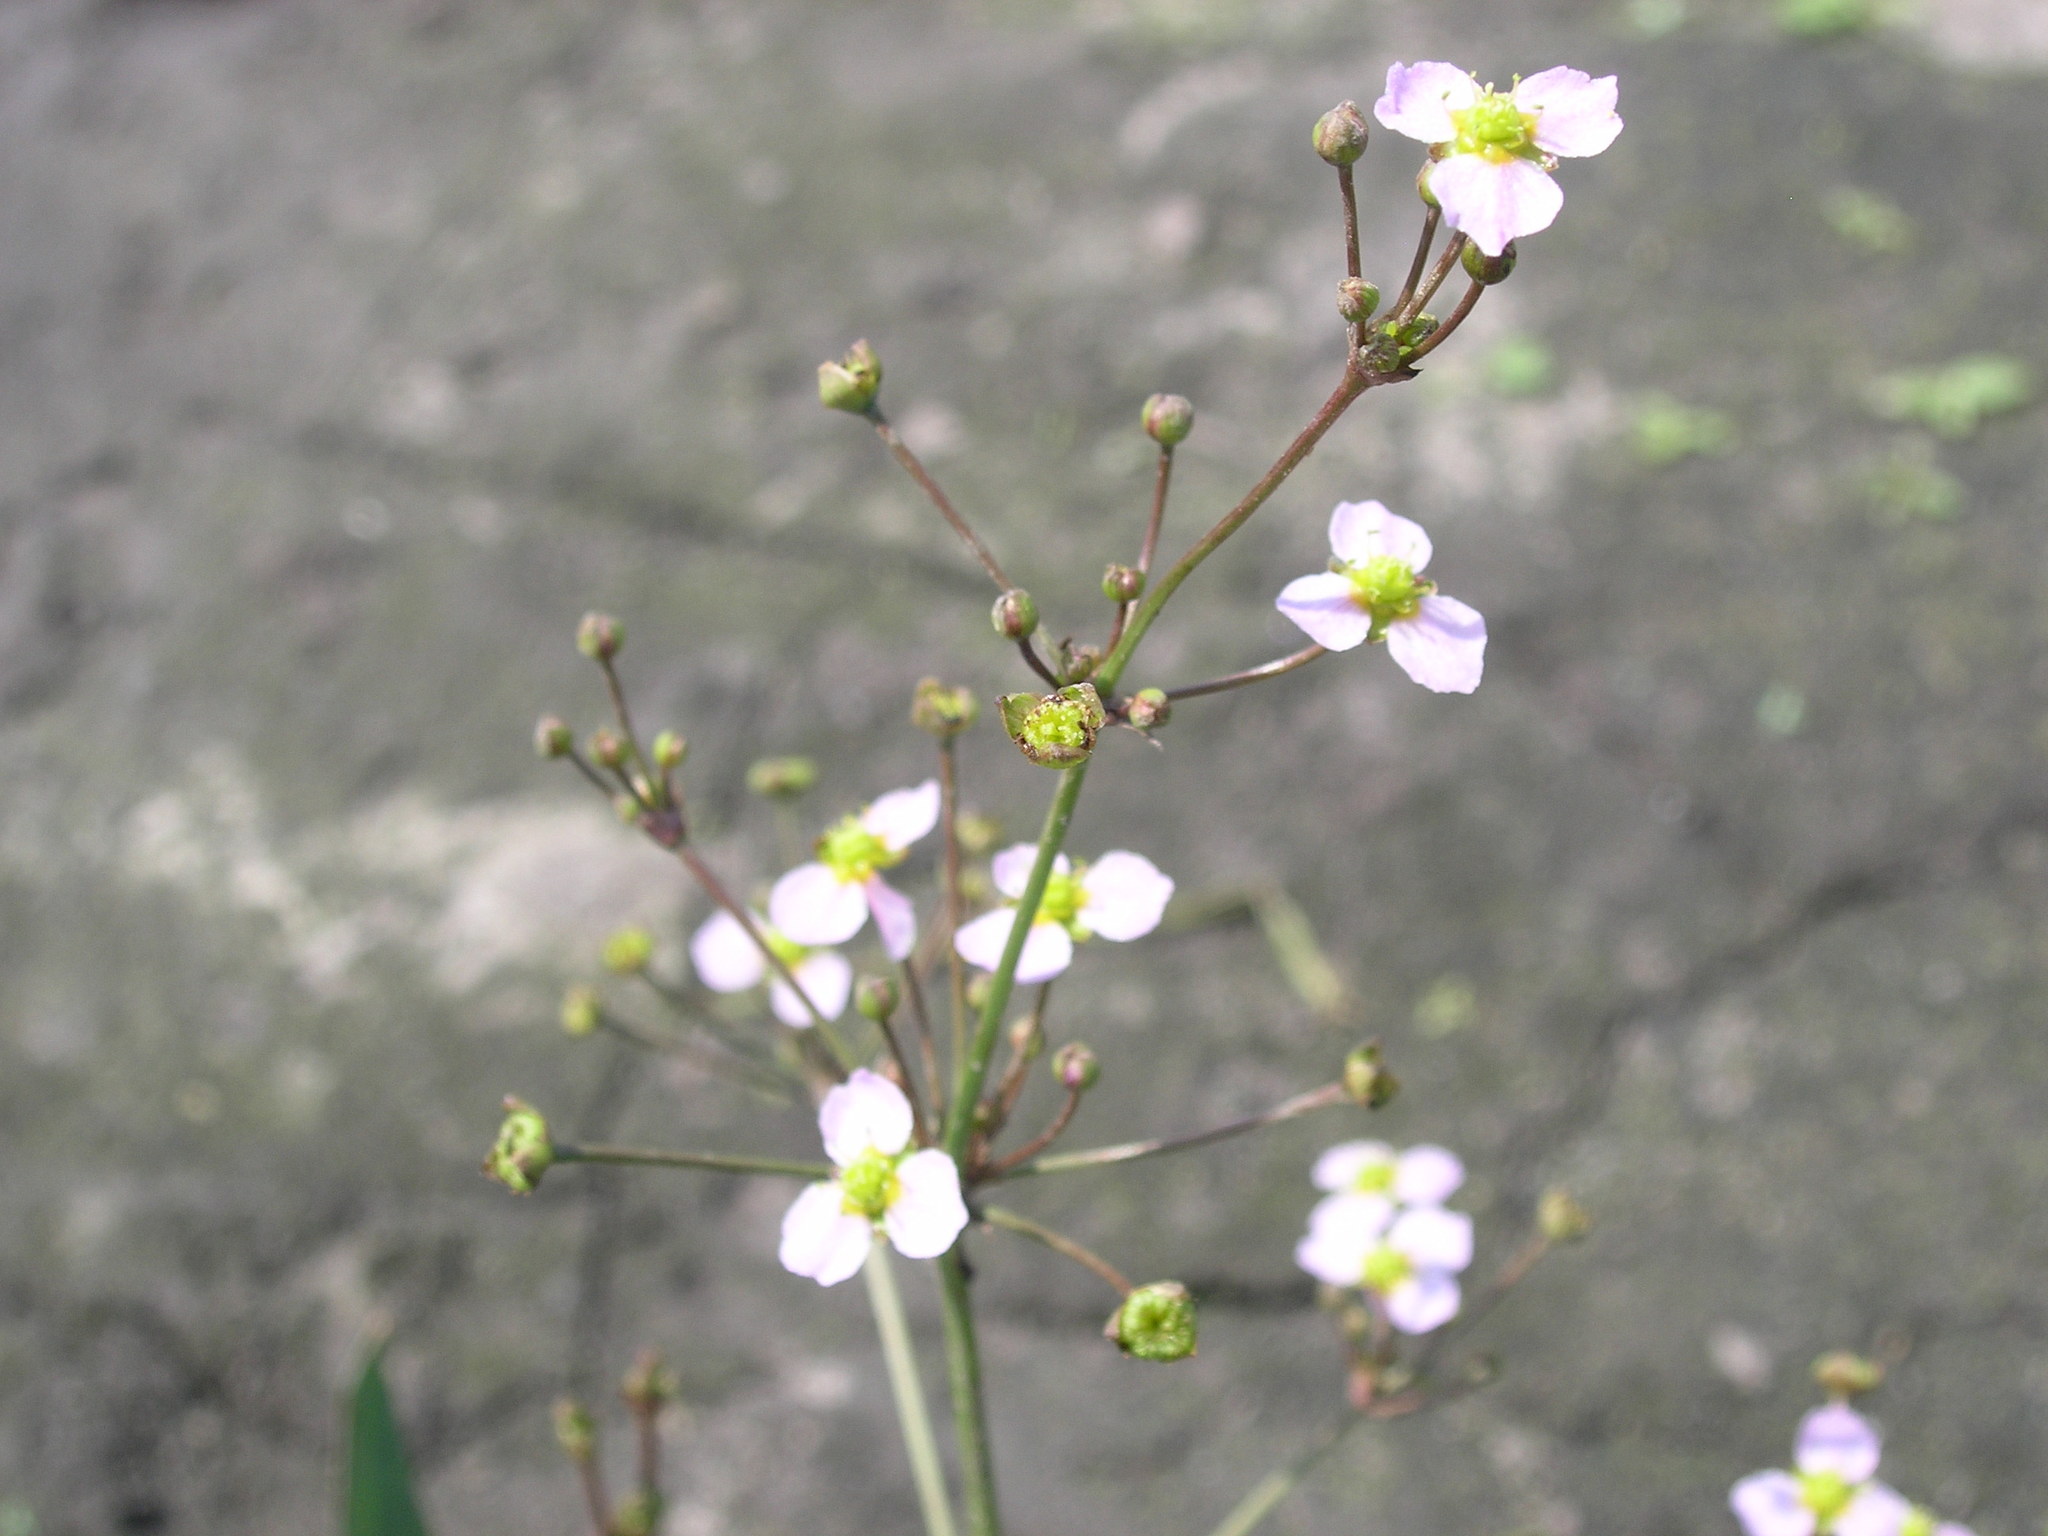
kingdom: Plantae
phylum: Tracheophyta
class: Liliopsida
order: Alismatales
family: Alismataceae
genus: Alisma
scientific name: Alisma plantago-aquatica
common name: Water-plantain
